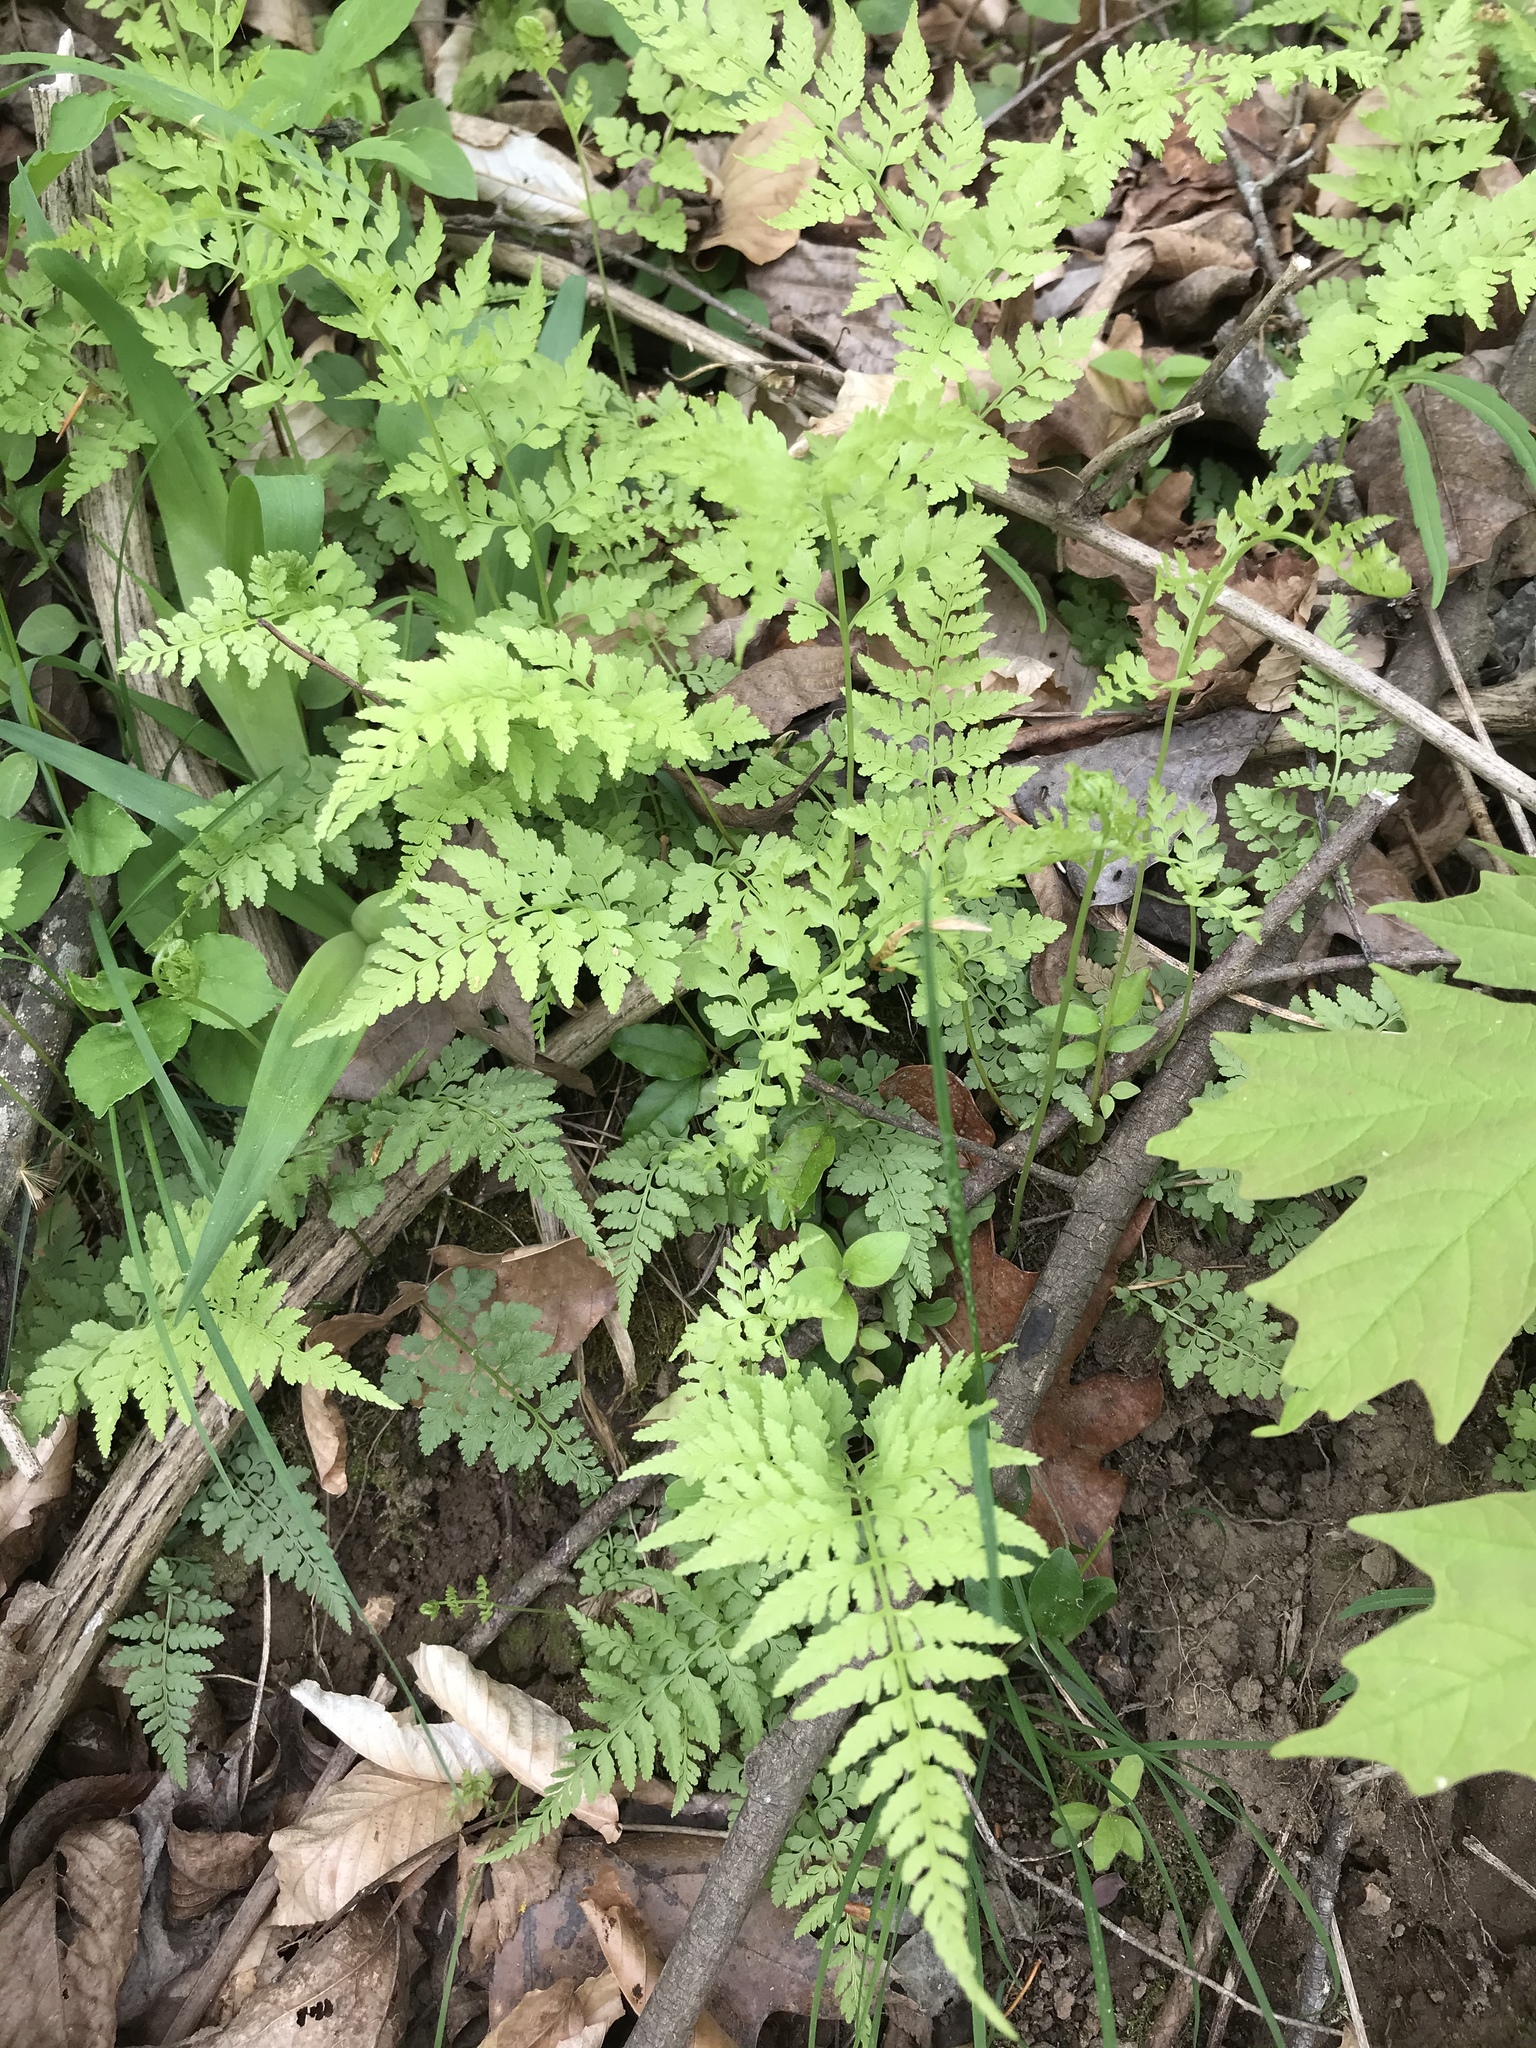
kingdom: Plantae
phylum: Tracheophyta
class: Polypodiopsida
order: Polypodiales
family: Cystopteridaceae
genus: Cystopteris
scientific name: Cystopteris protrusa
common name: Lowland brittle fern
